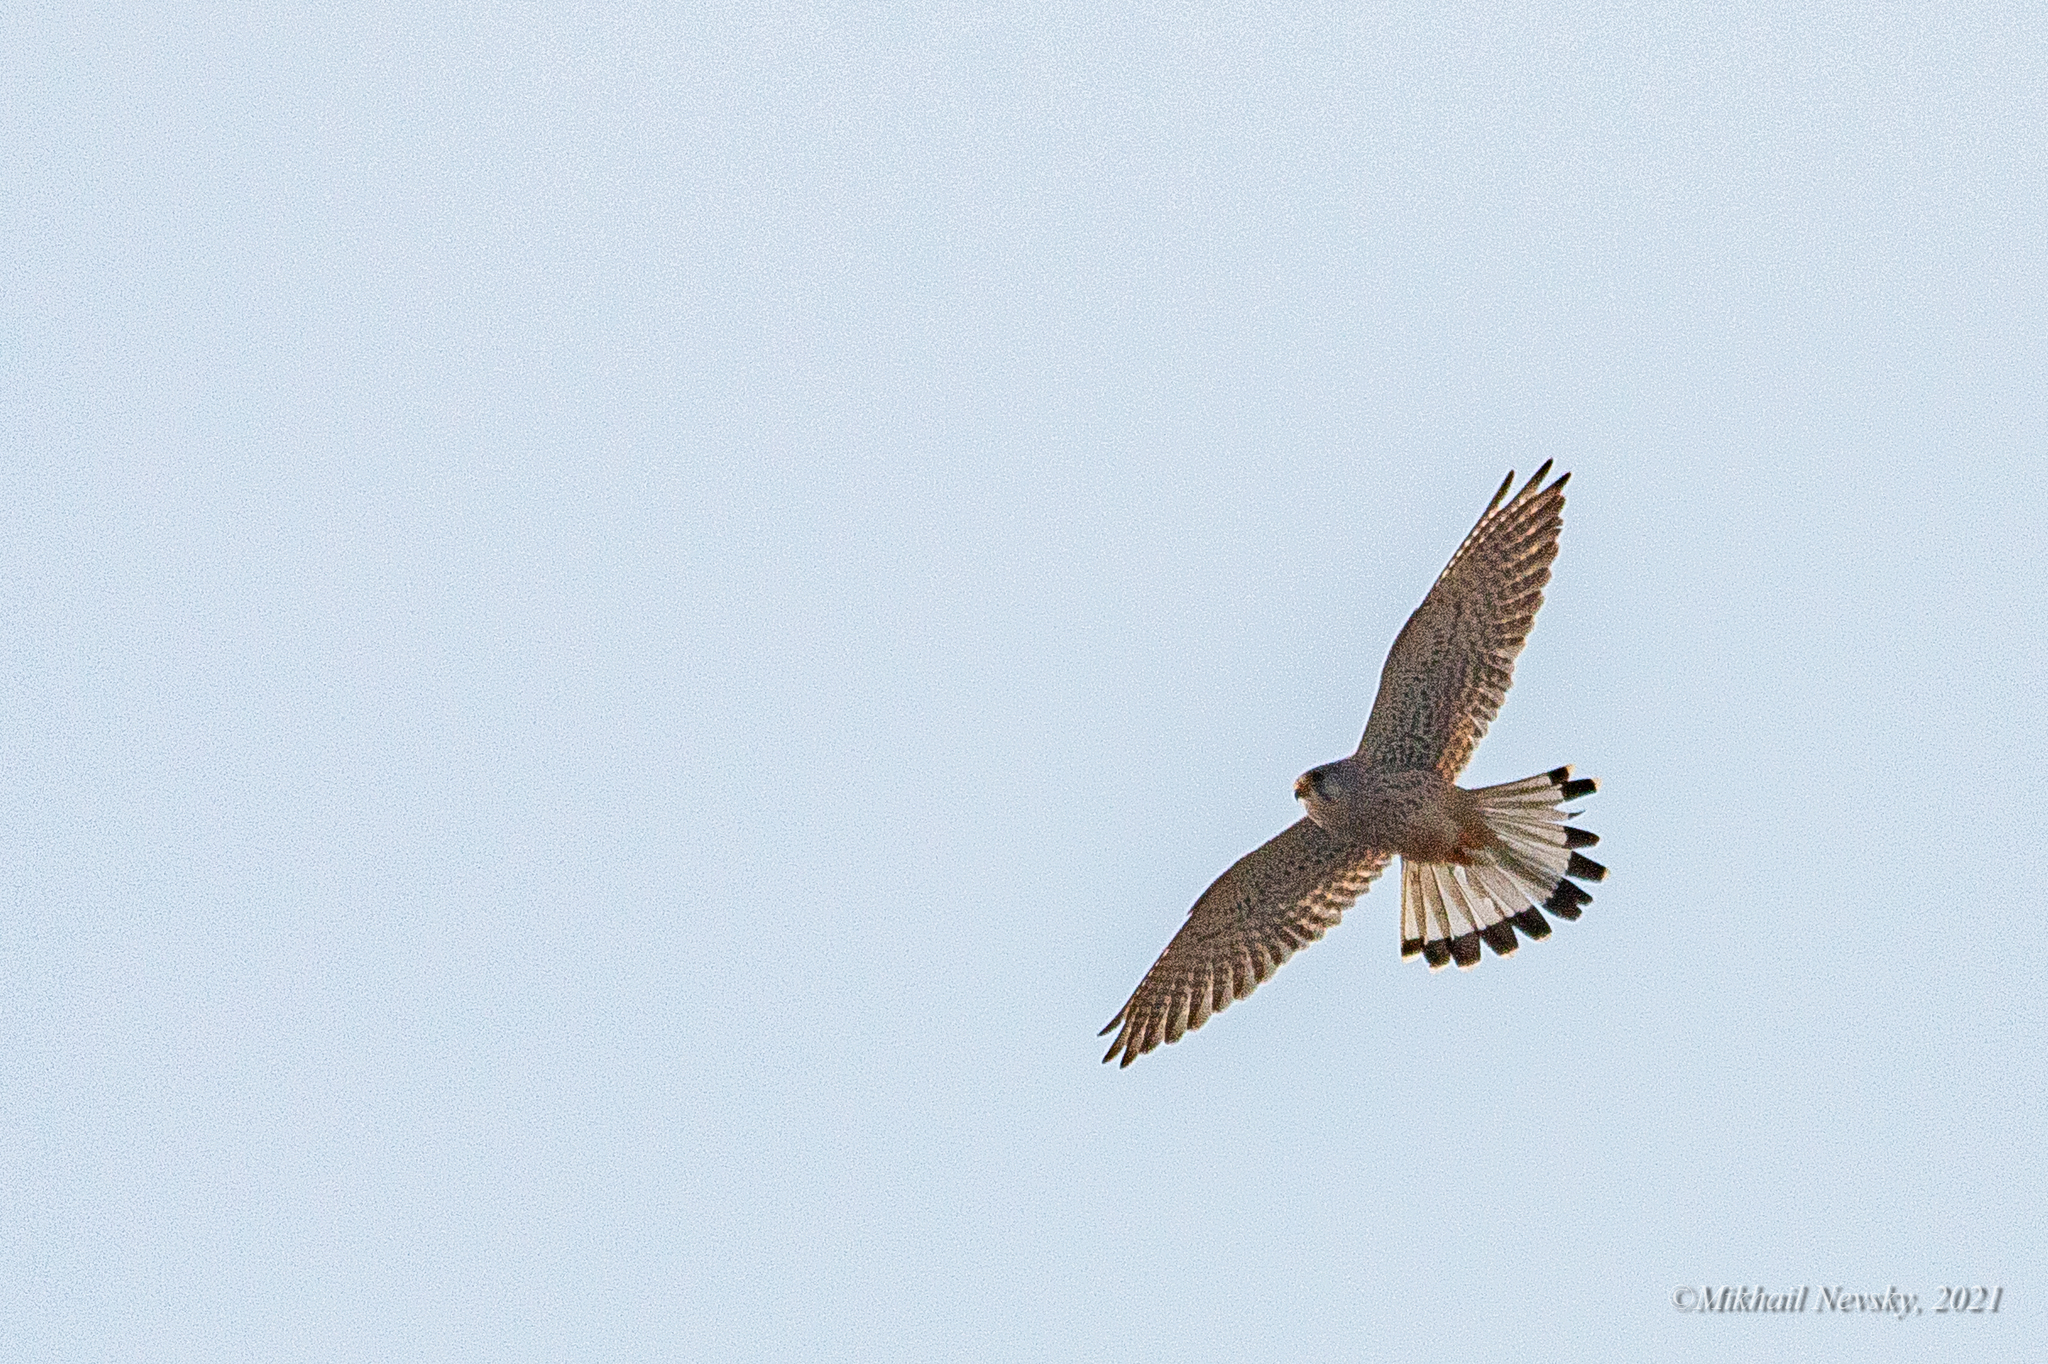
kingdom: Animalia
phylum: Chordata
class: Aves
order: Falconiformes
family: Falconidae
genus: Falco
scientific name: Falco tinnunculus
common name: Common kestrel
